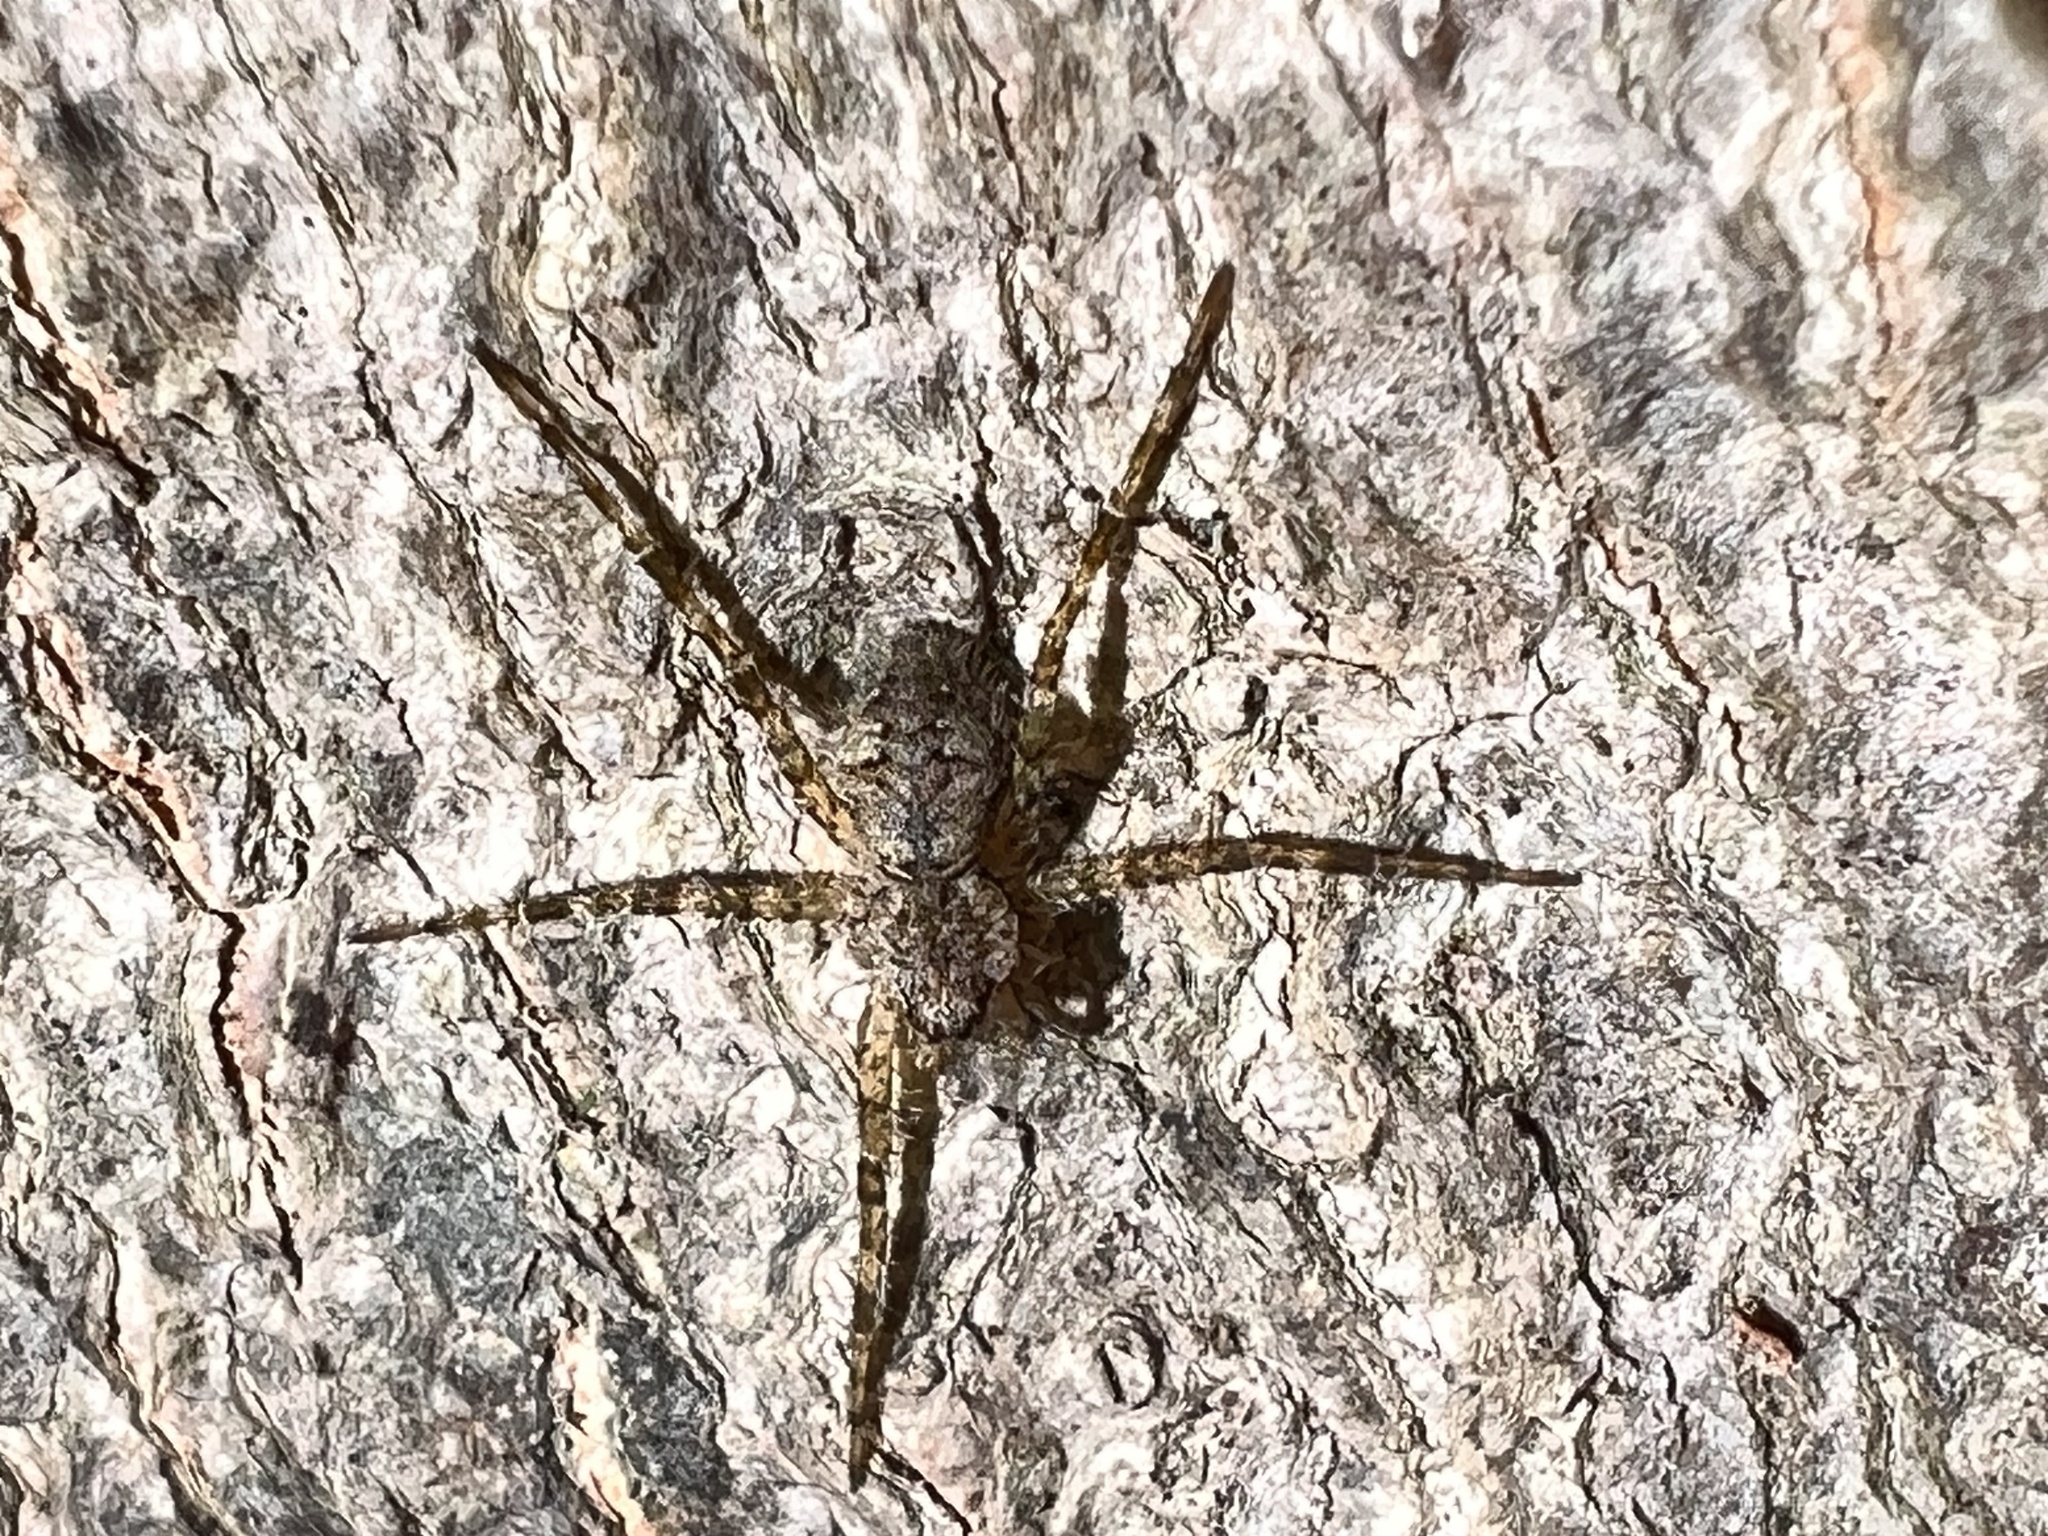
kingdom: Animalia
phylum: Arthropoda
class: Arachnida
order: Araneae
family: Pisauridae
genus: Dolomedes
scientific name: Dolomedes albineus
